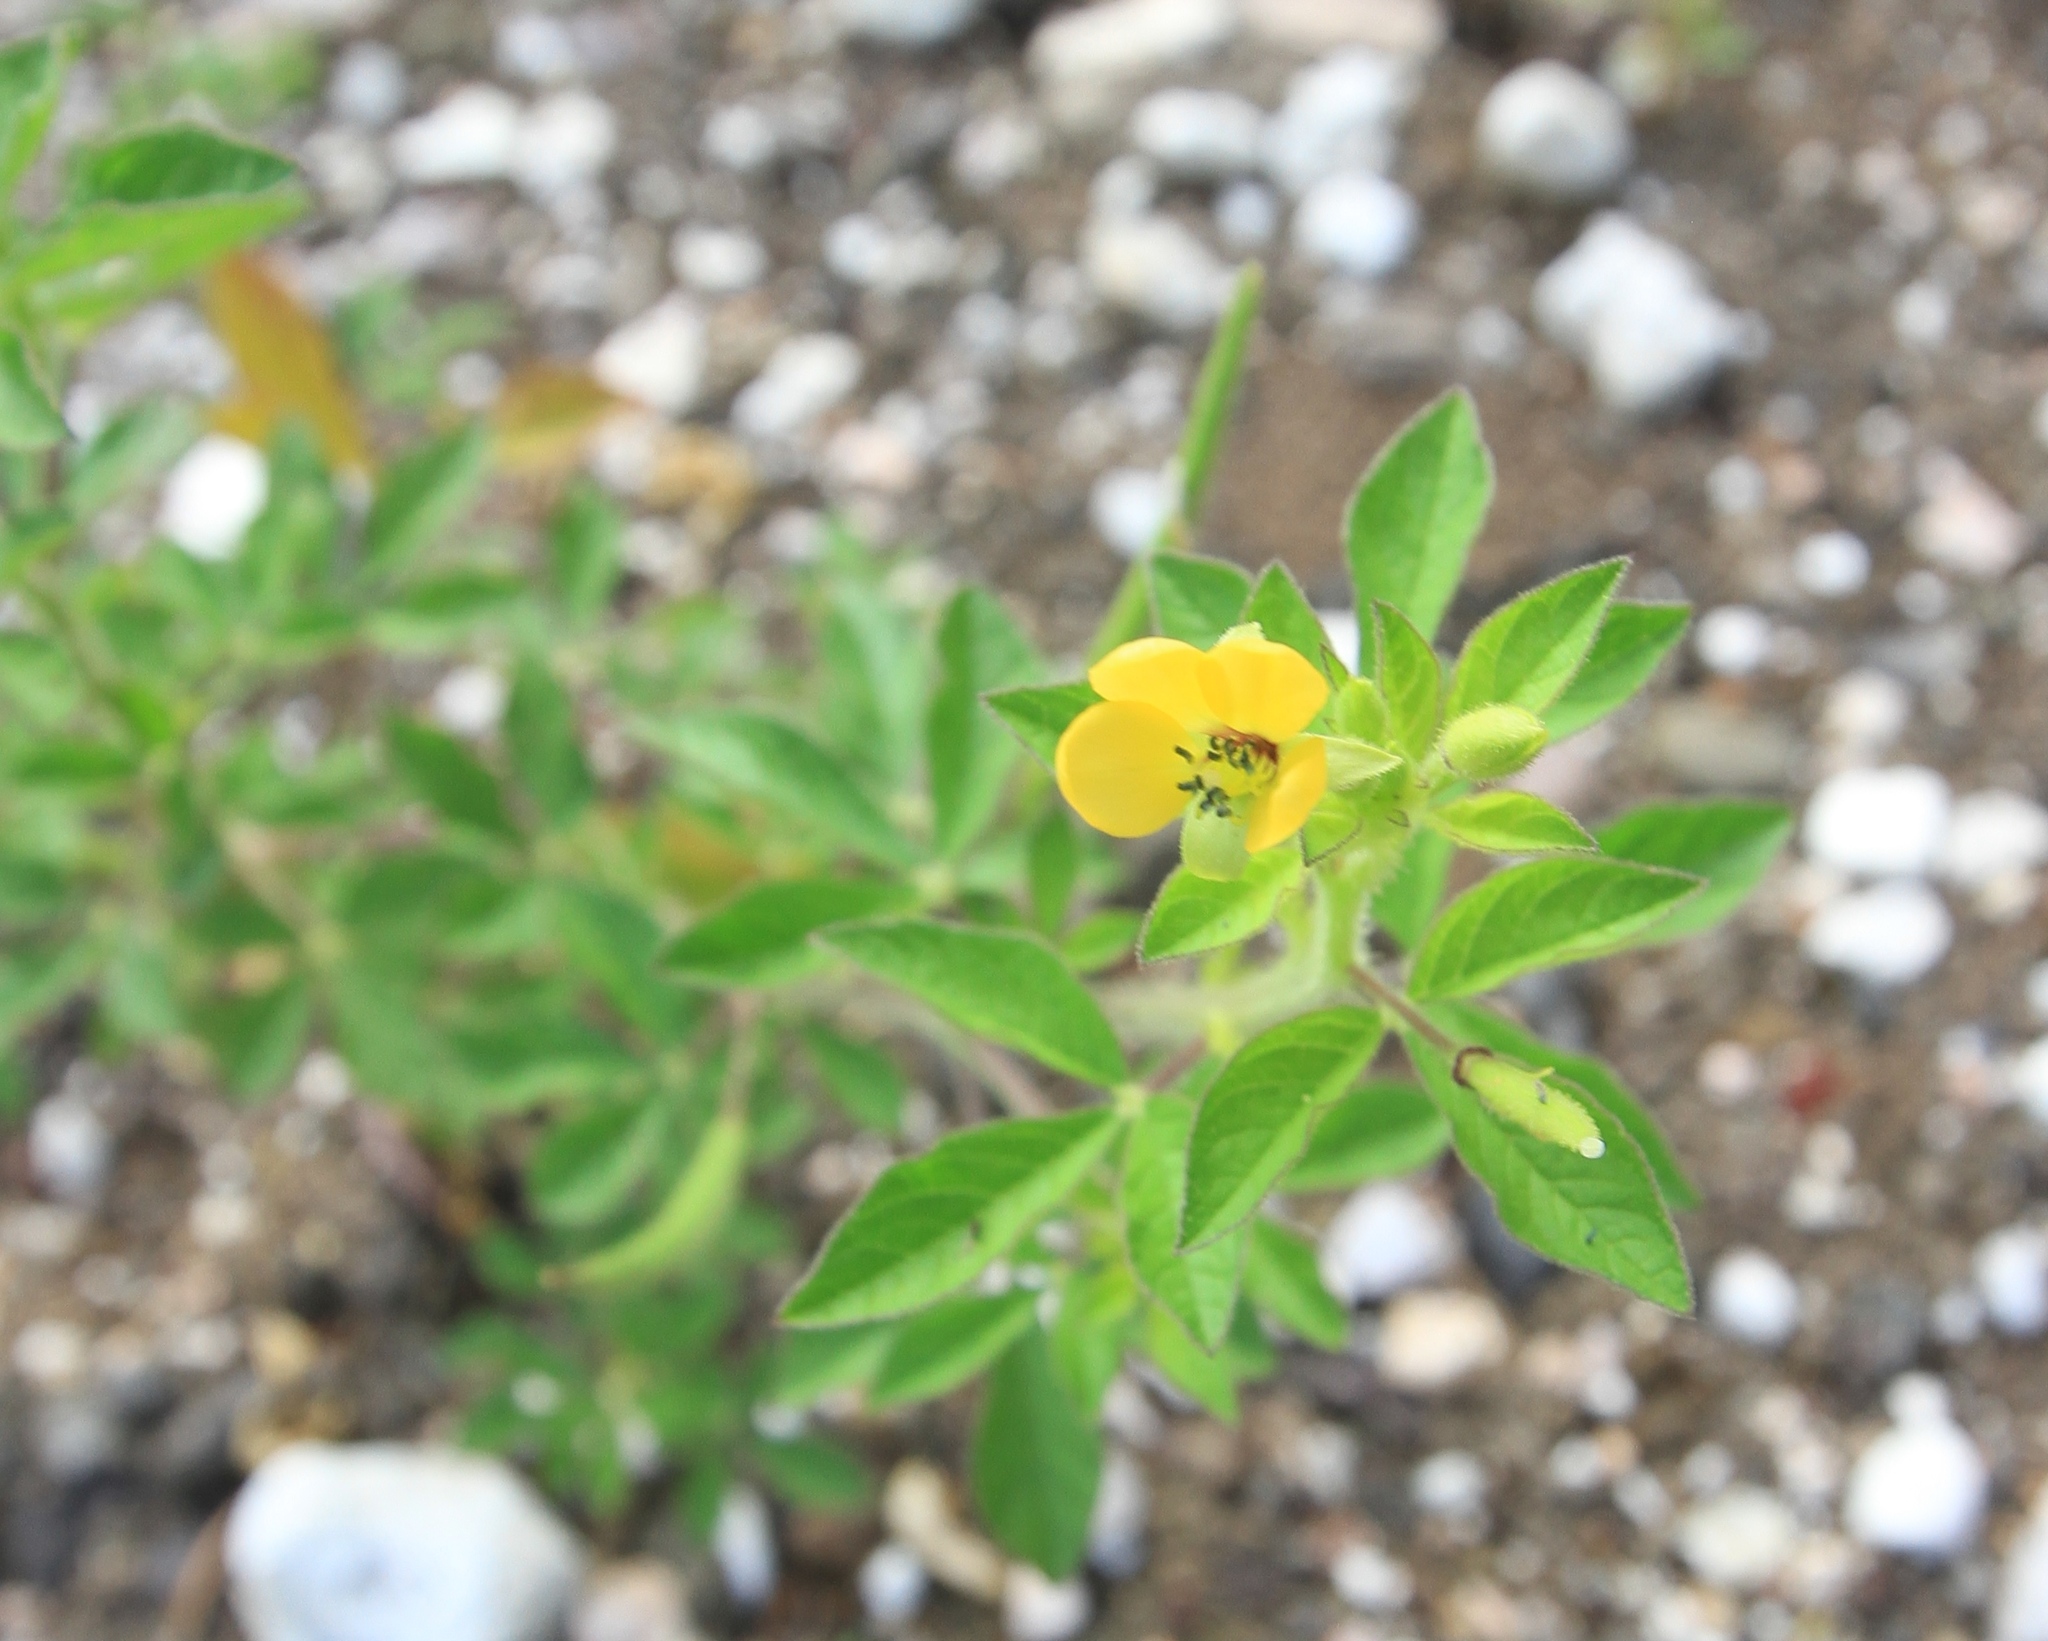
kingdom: Plantae
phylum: Tracheophyta
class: Magnoliopsida
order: Brassicales
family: Cleomaceae
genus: Arivela
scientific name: Arivela viscosa
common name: Asian spiderflower
